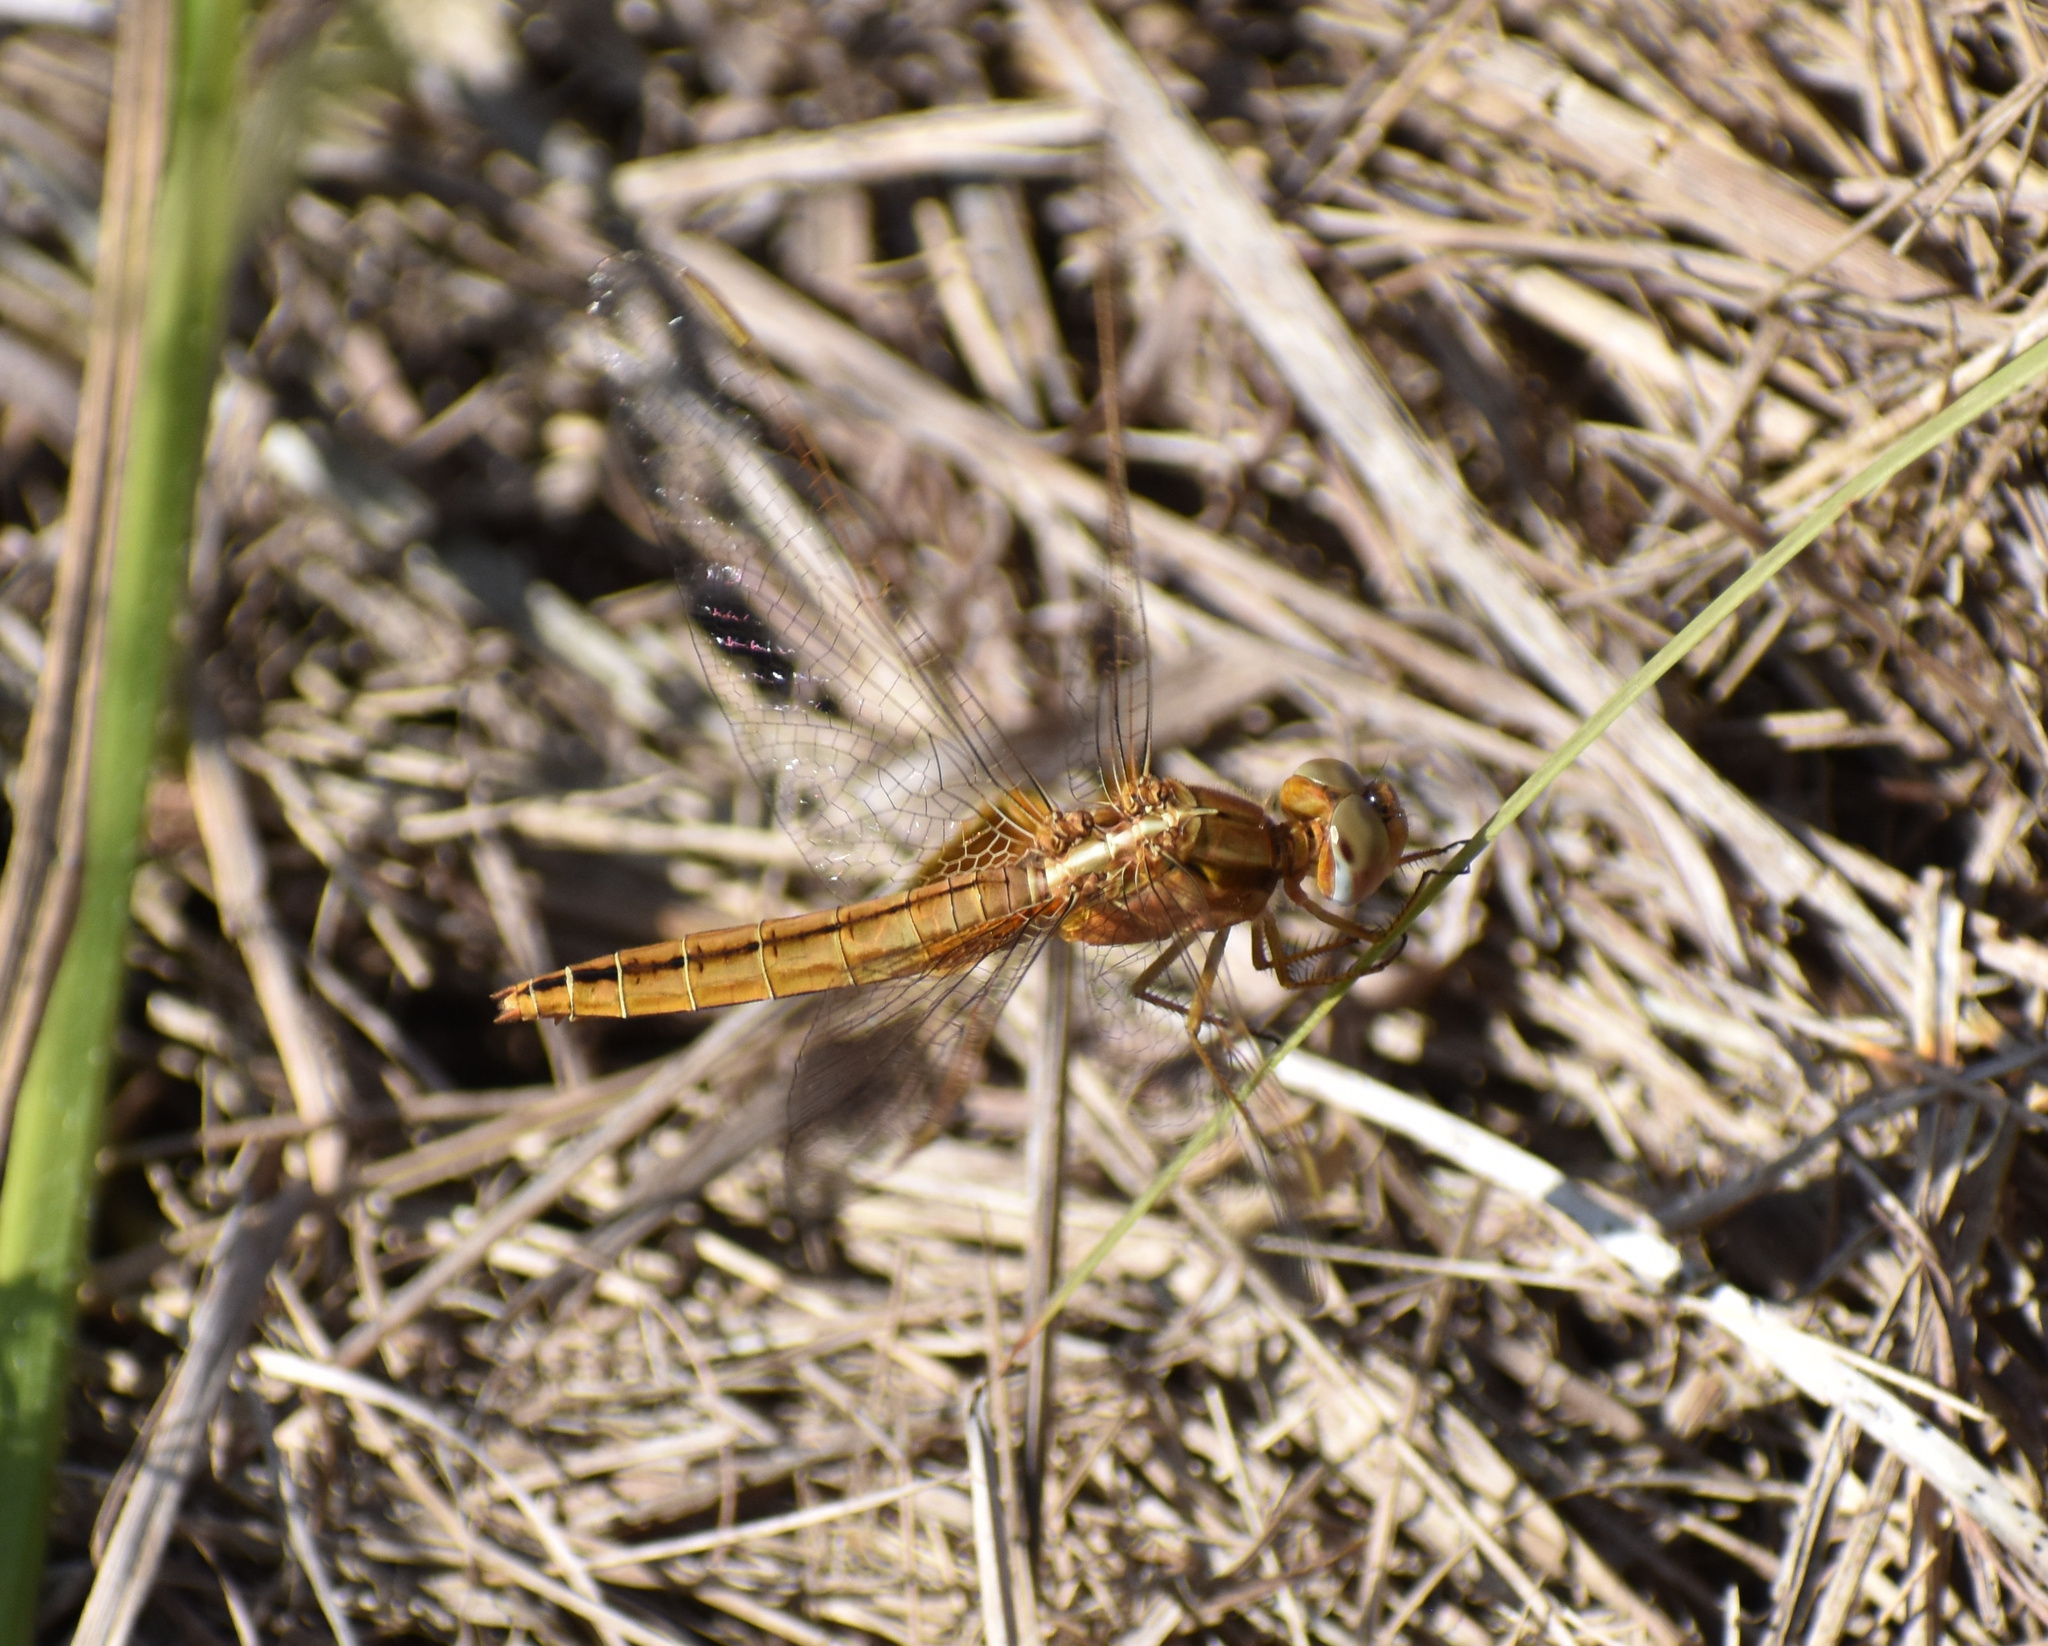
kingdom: Animalia
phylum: Arthropoda
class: Insecta
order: Odonata
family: Libellulidae
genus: Crocothemis
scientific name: Crocothemis erythraea
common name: Scarlet dragonfly
